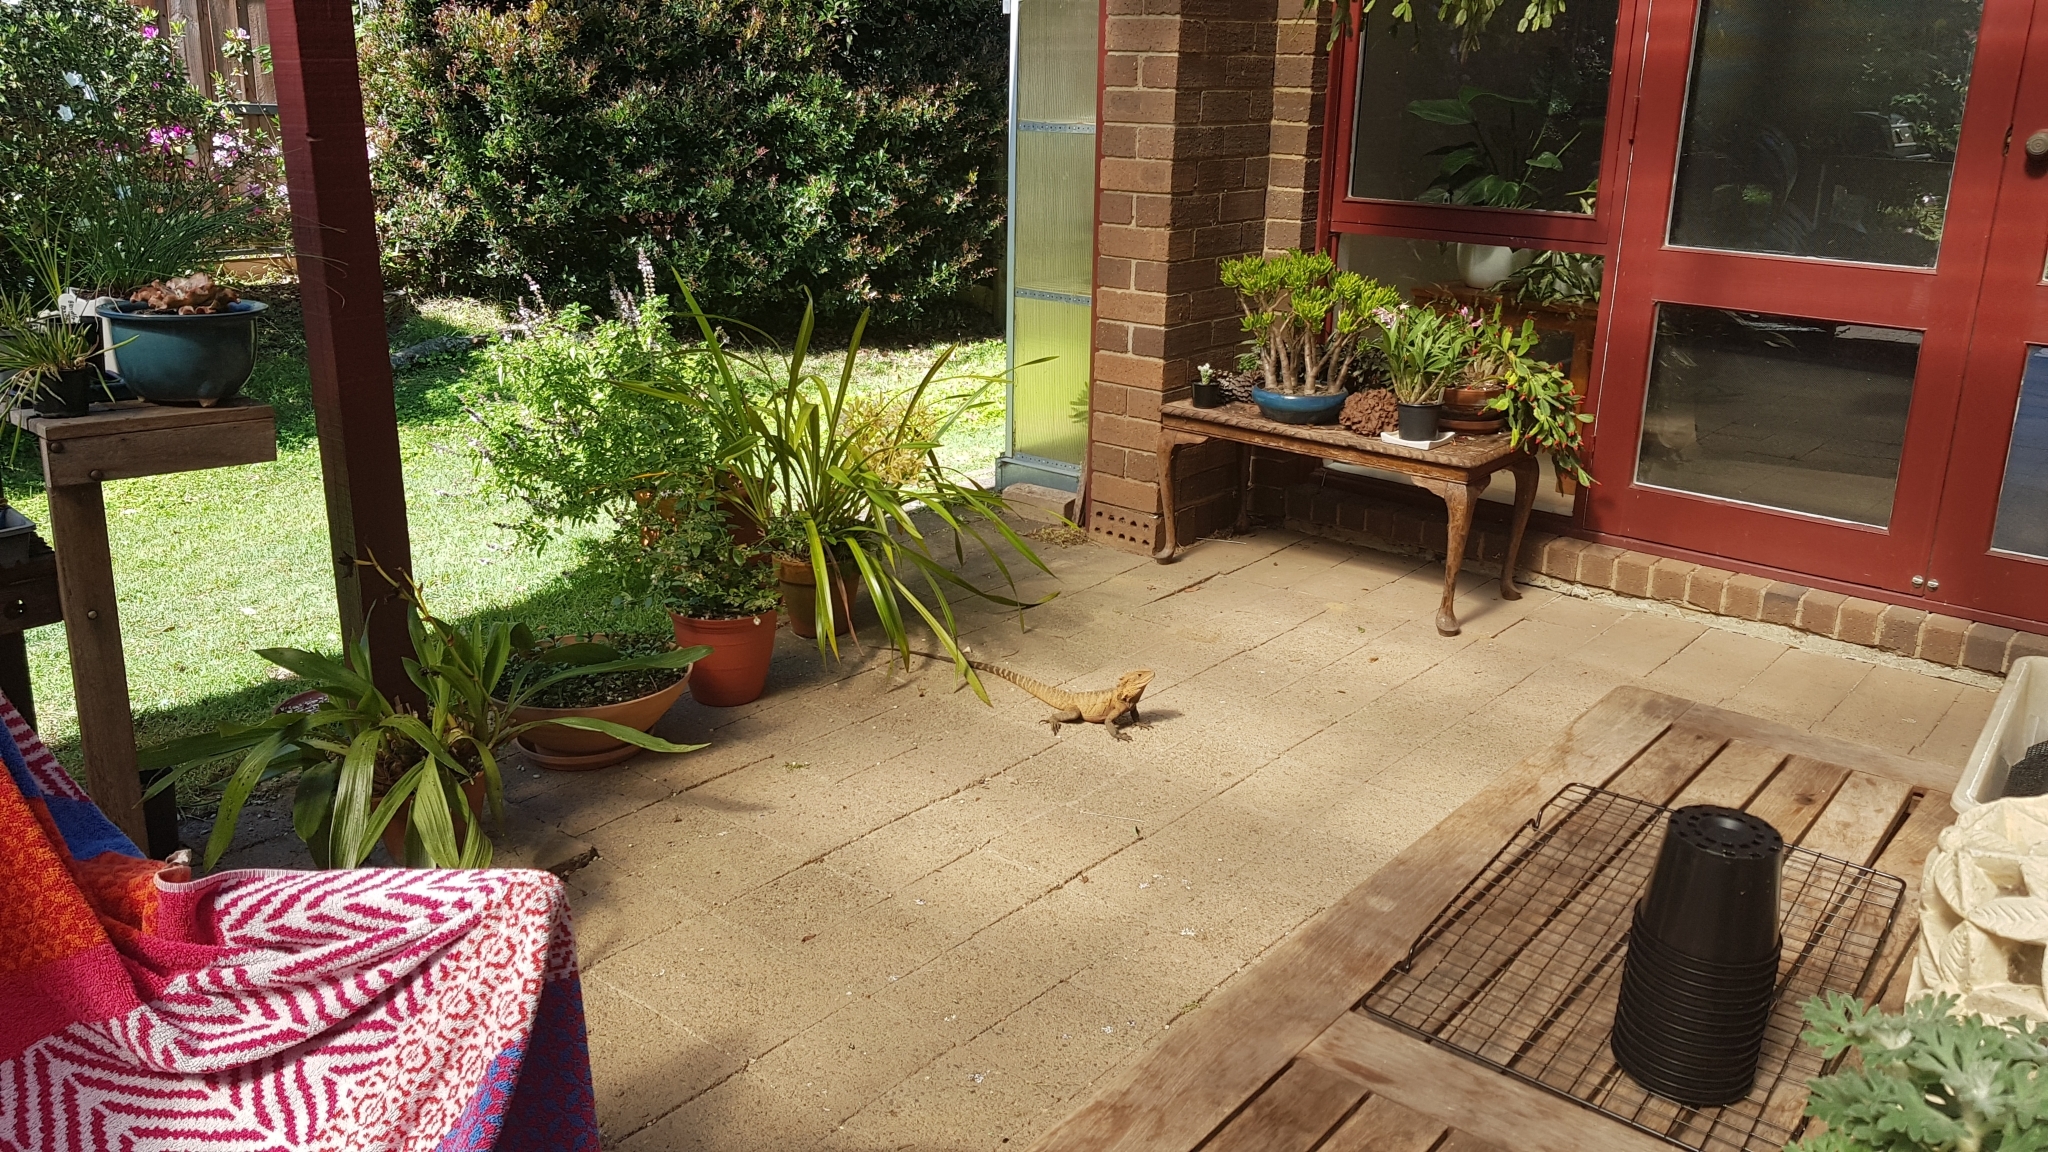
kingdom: Animalia
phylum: Chordata
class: Squamata
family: Agamidae
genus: Intellagama
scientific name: Intellagama lesueurii
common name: Eastern water dragon
